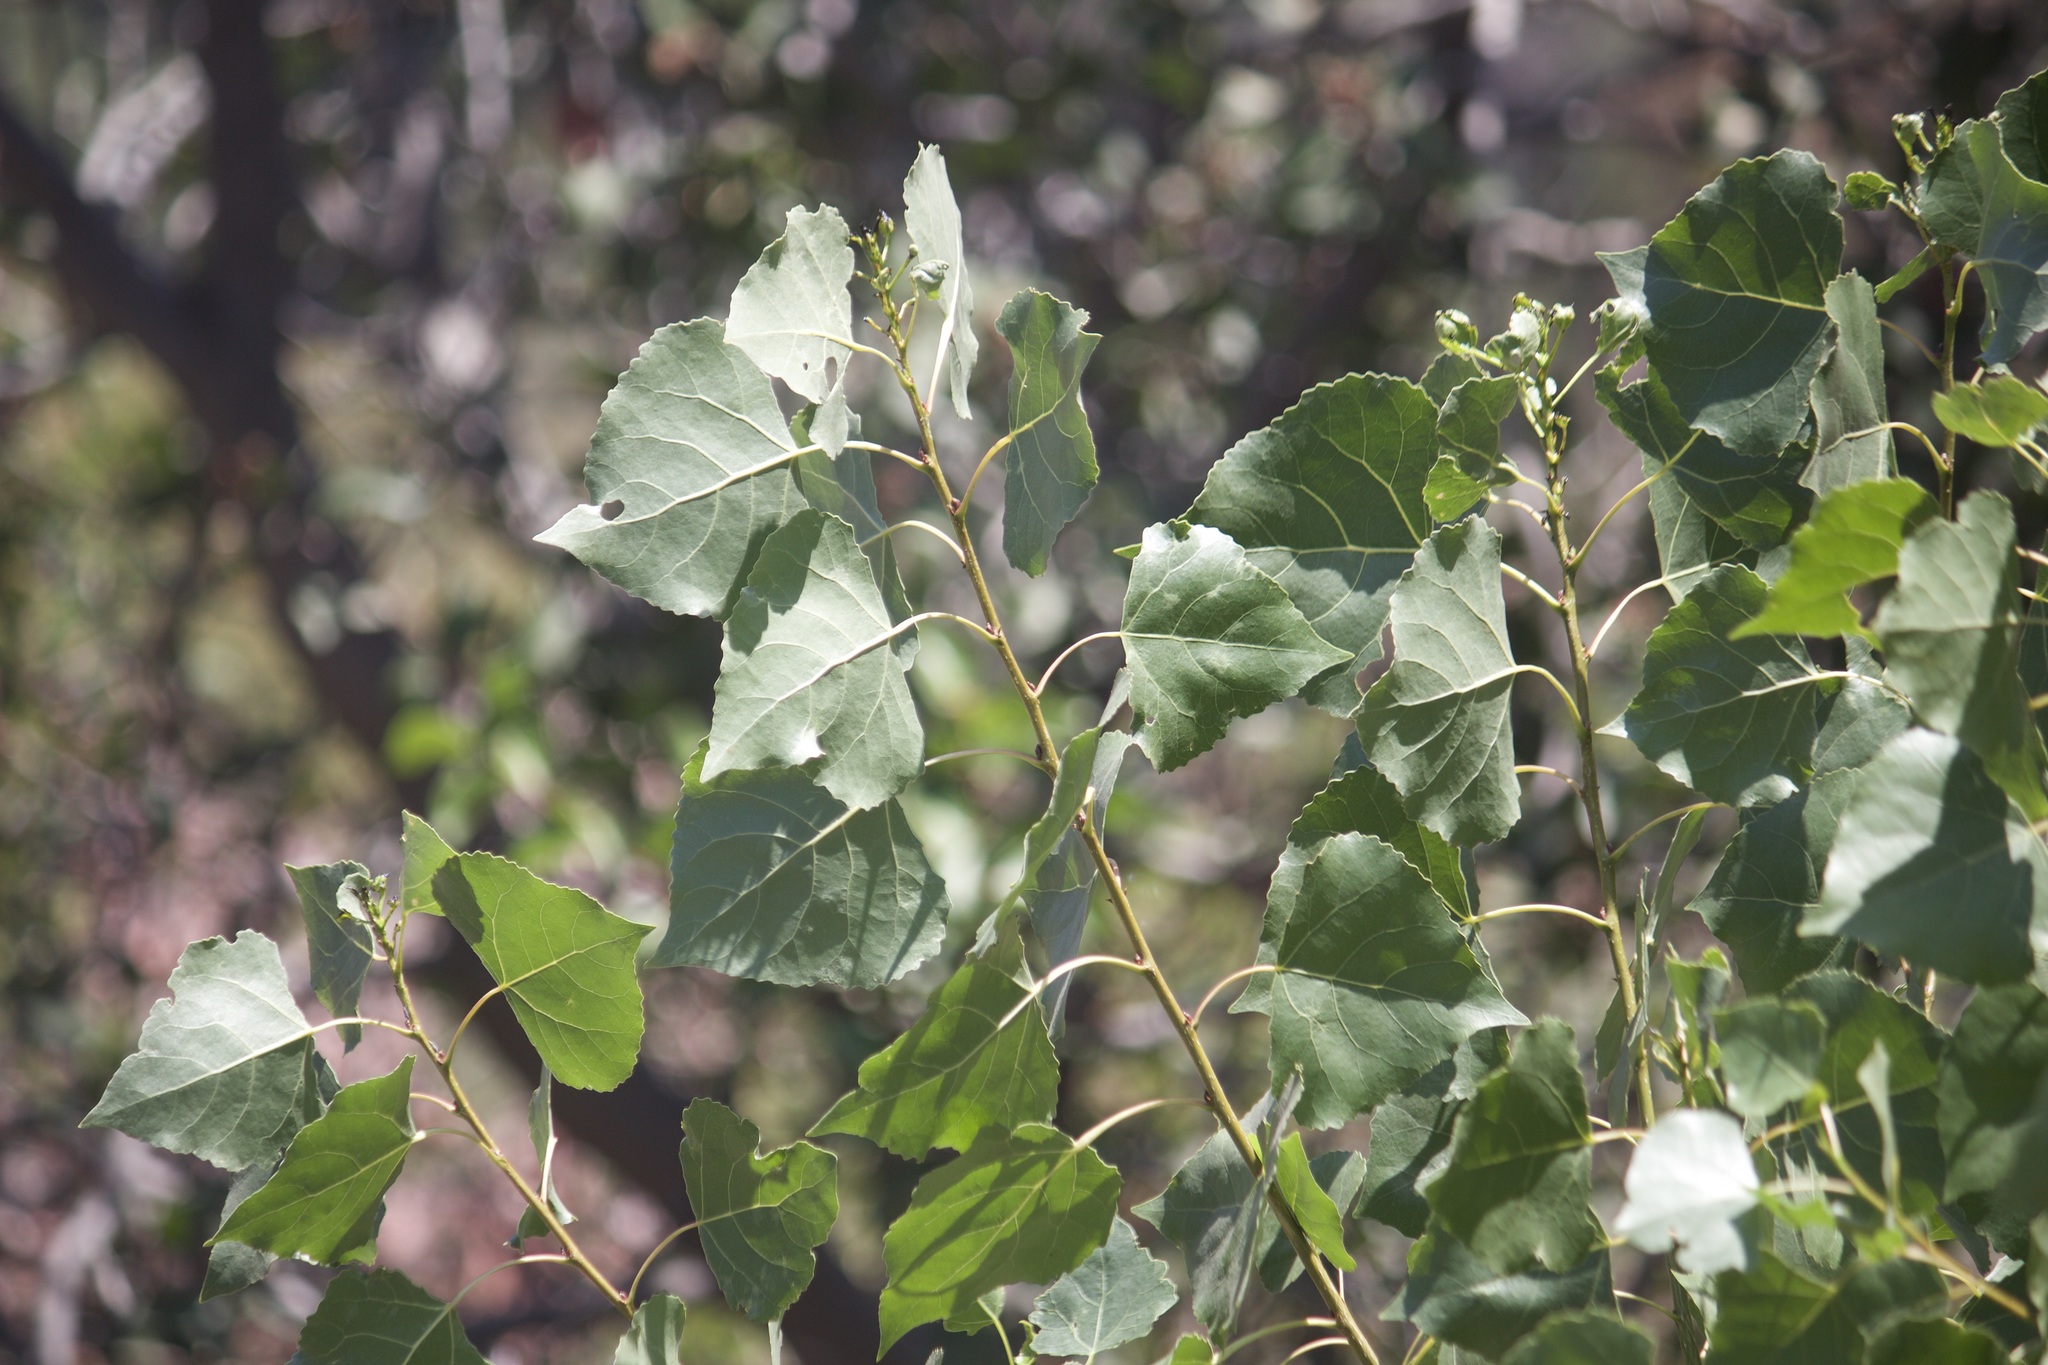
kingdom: Plantae
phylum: Tracheophyta
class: Magnoliopsida
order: Malpighiales
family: Salicaceae
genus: Populus
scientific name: Populus fremontii
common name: Fremont's cottonwood
